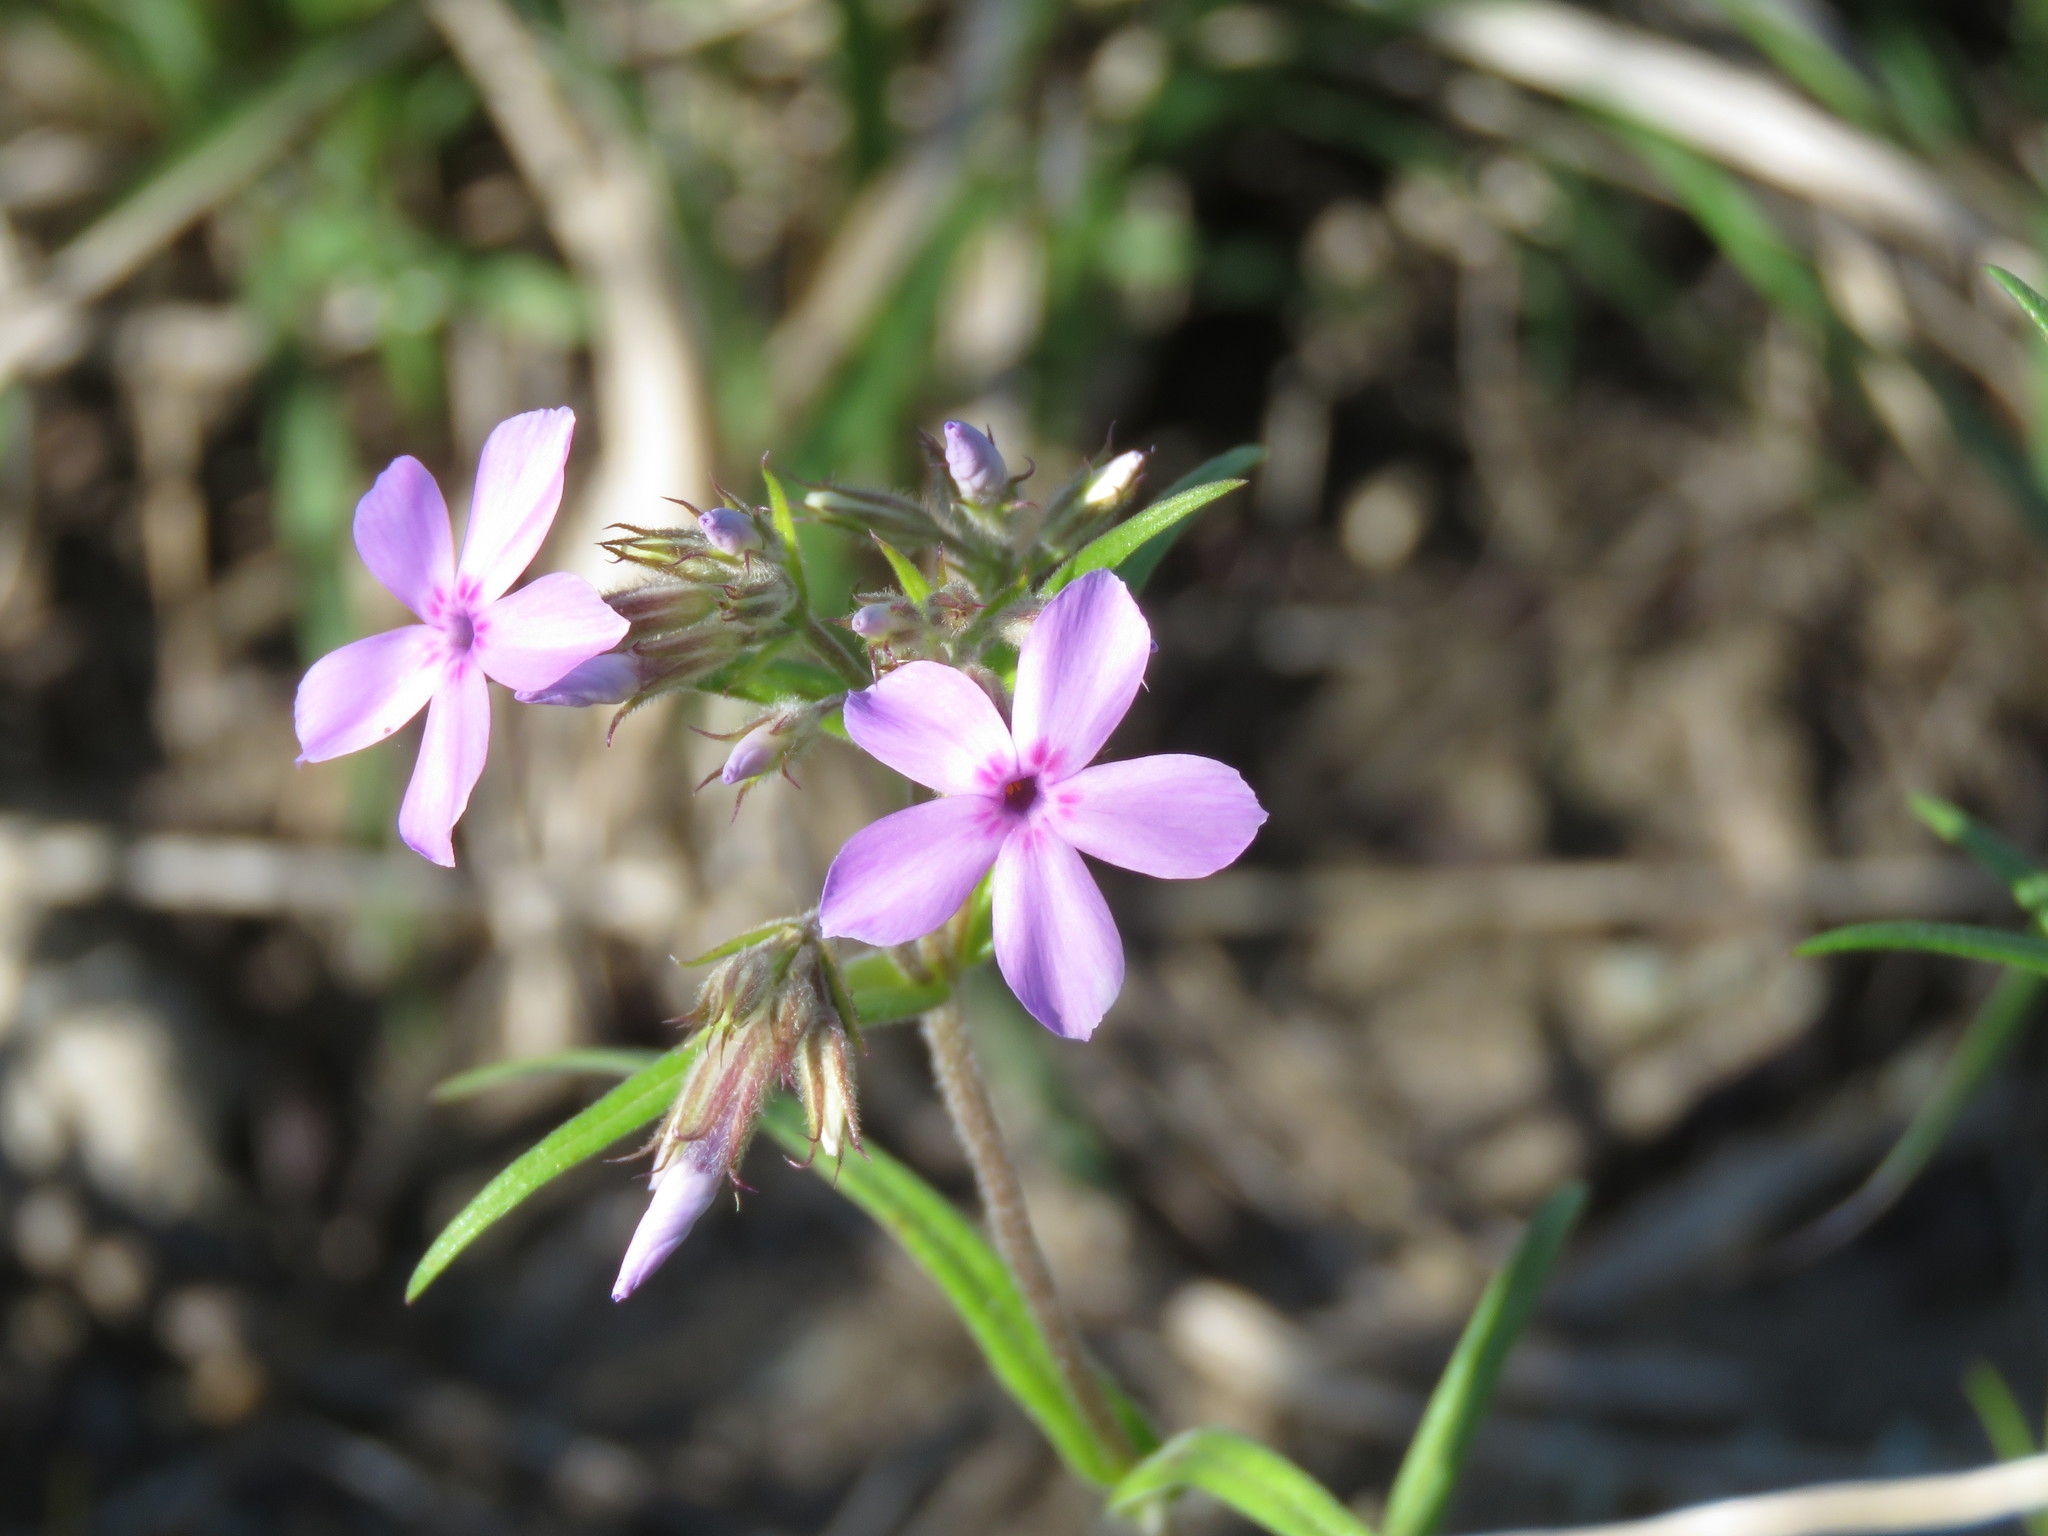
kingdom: Plantae
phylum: Tracheophyta
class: Magnoliopsida
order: Ericales
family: Polemoniaceae
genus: Phlox
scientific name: Phlox pilosa
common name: Prairie phlox
